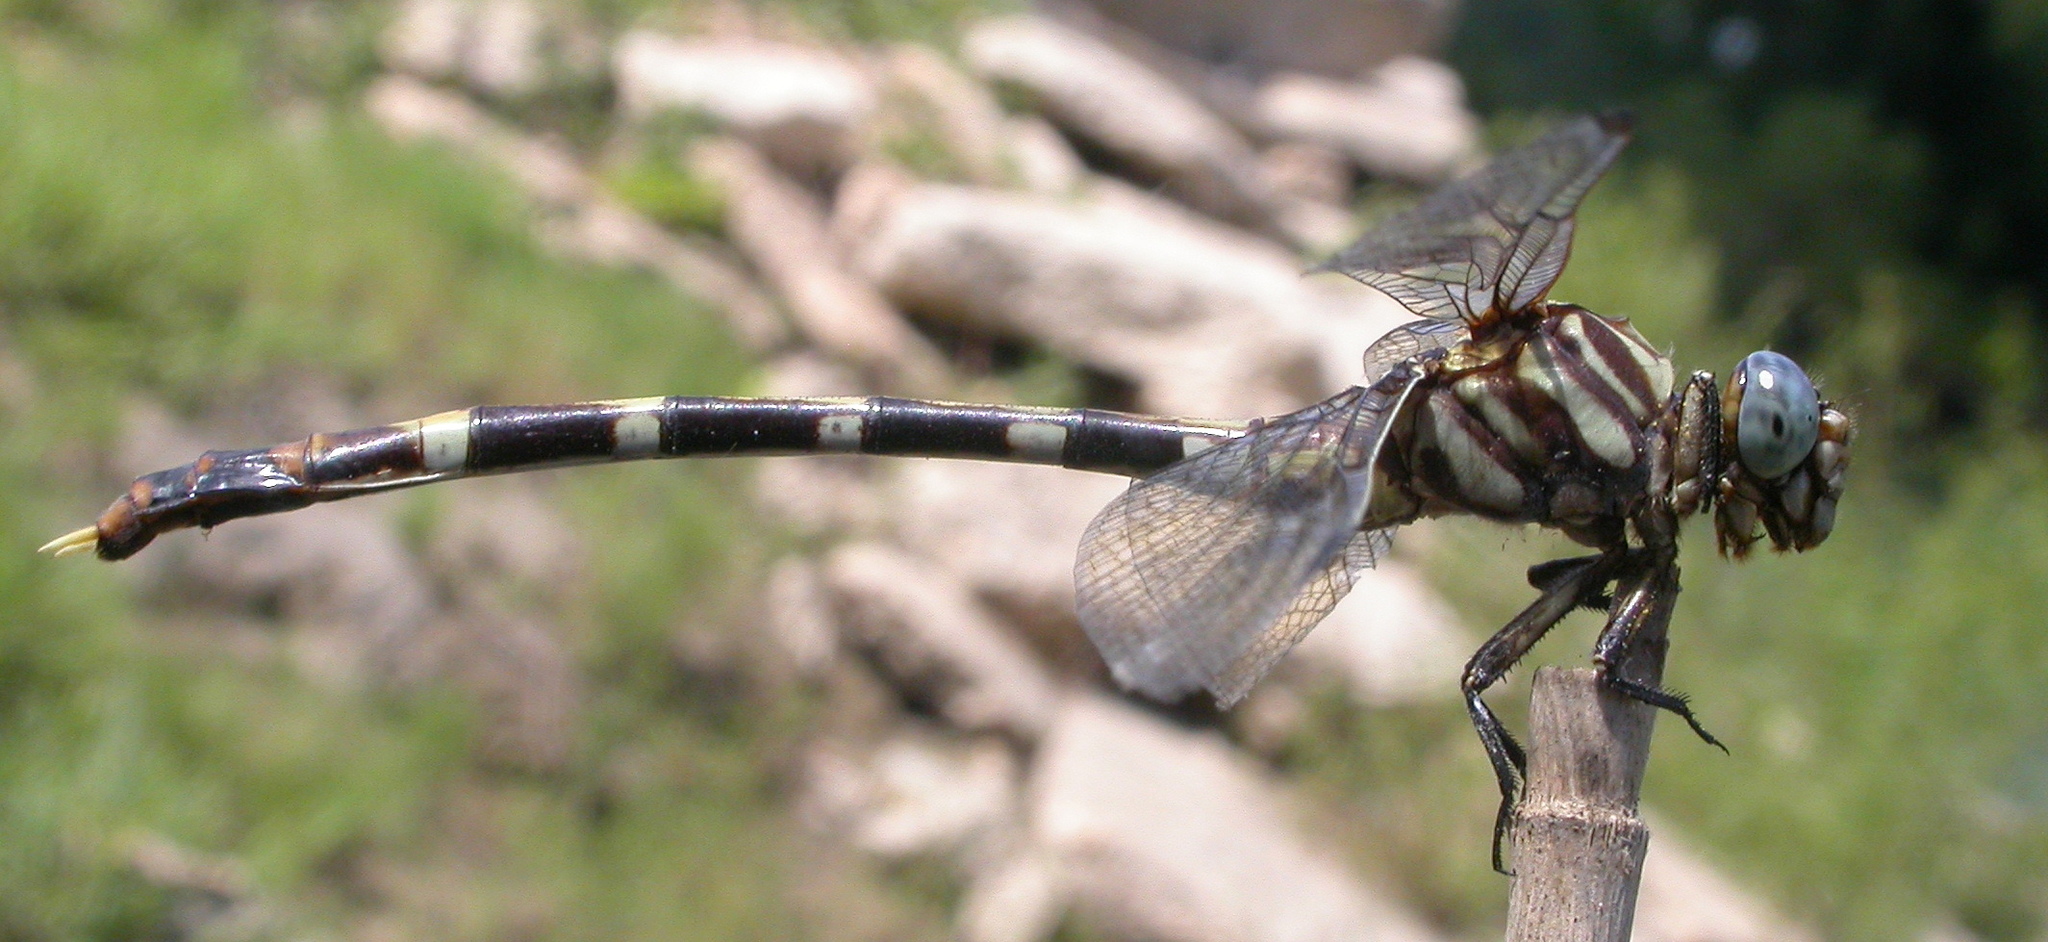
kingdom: Animalia
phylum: Arthropoda
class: Insecta
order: Odonata
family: Gomphidae
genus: Phyllogomphoides
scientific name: Phyllogomphoides albrighti
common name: Five-striped leaftail
